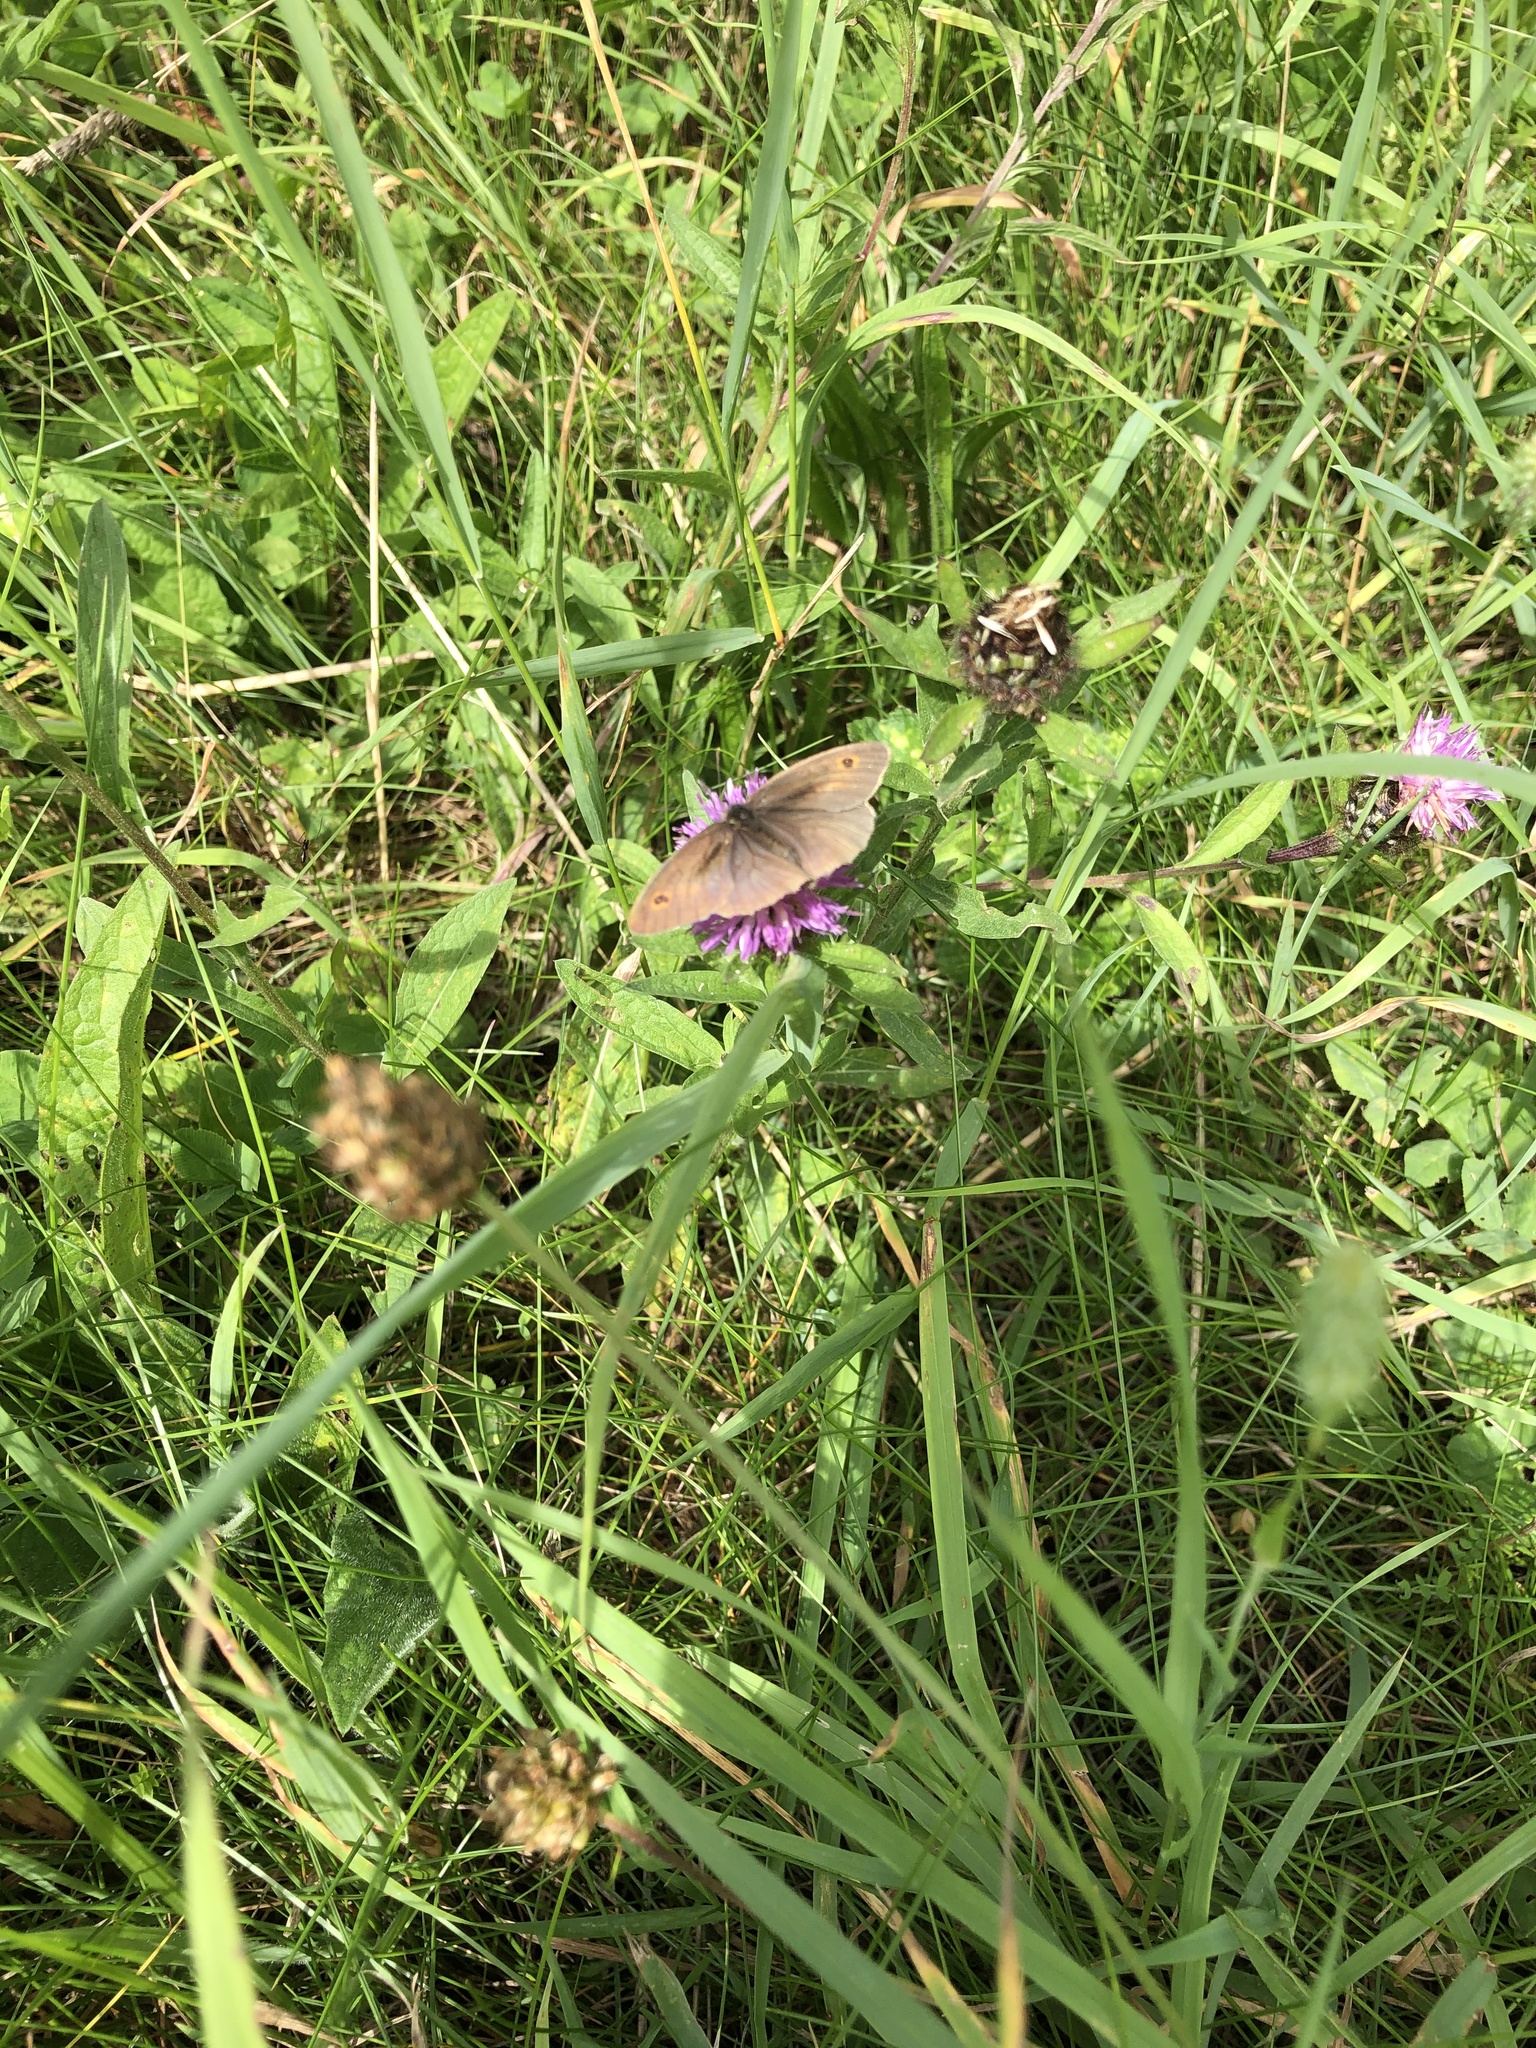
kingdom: Animalia
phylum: Arthropoda
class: Insecta
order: Lepidoptera
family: Nymphalidae
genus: Maniola
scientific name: Maniola jurtina
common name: Meadow brown
